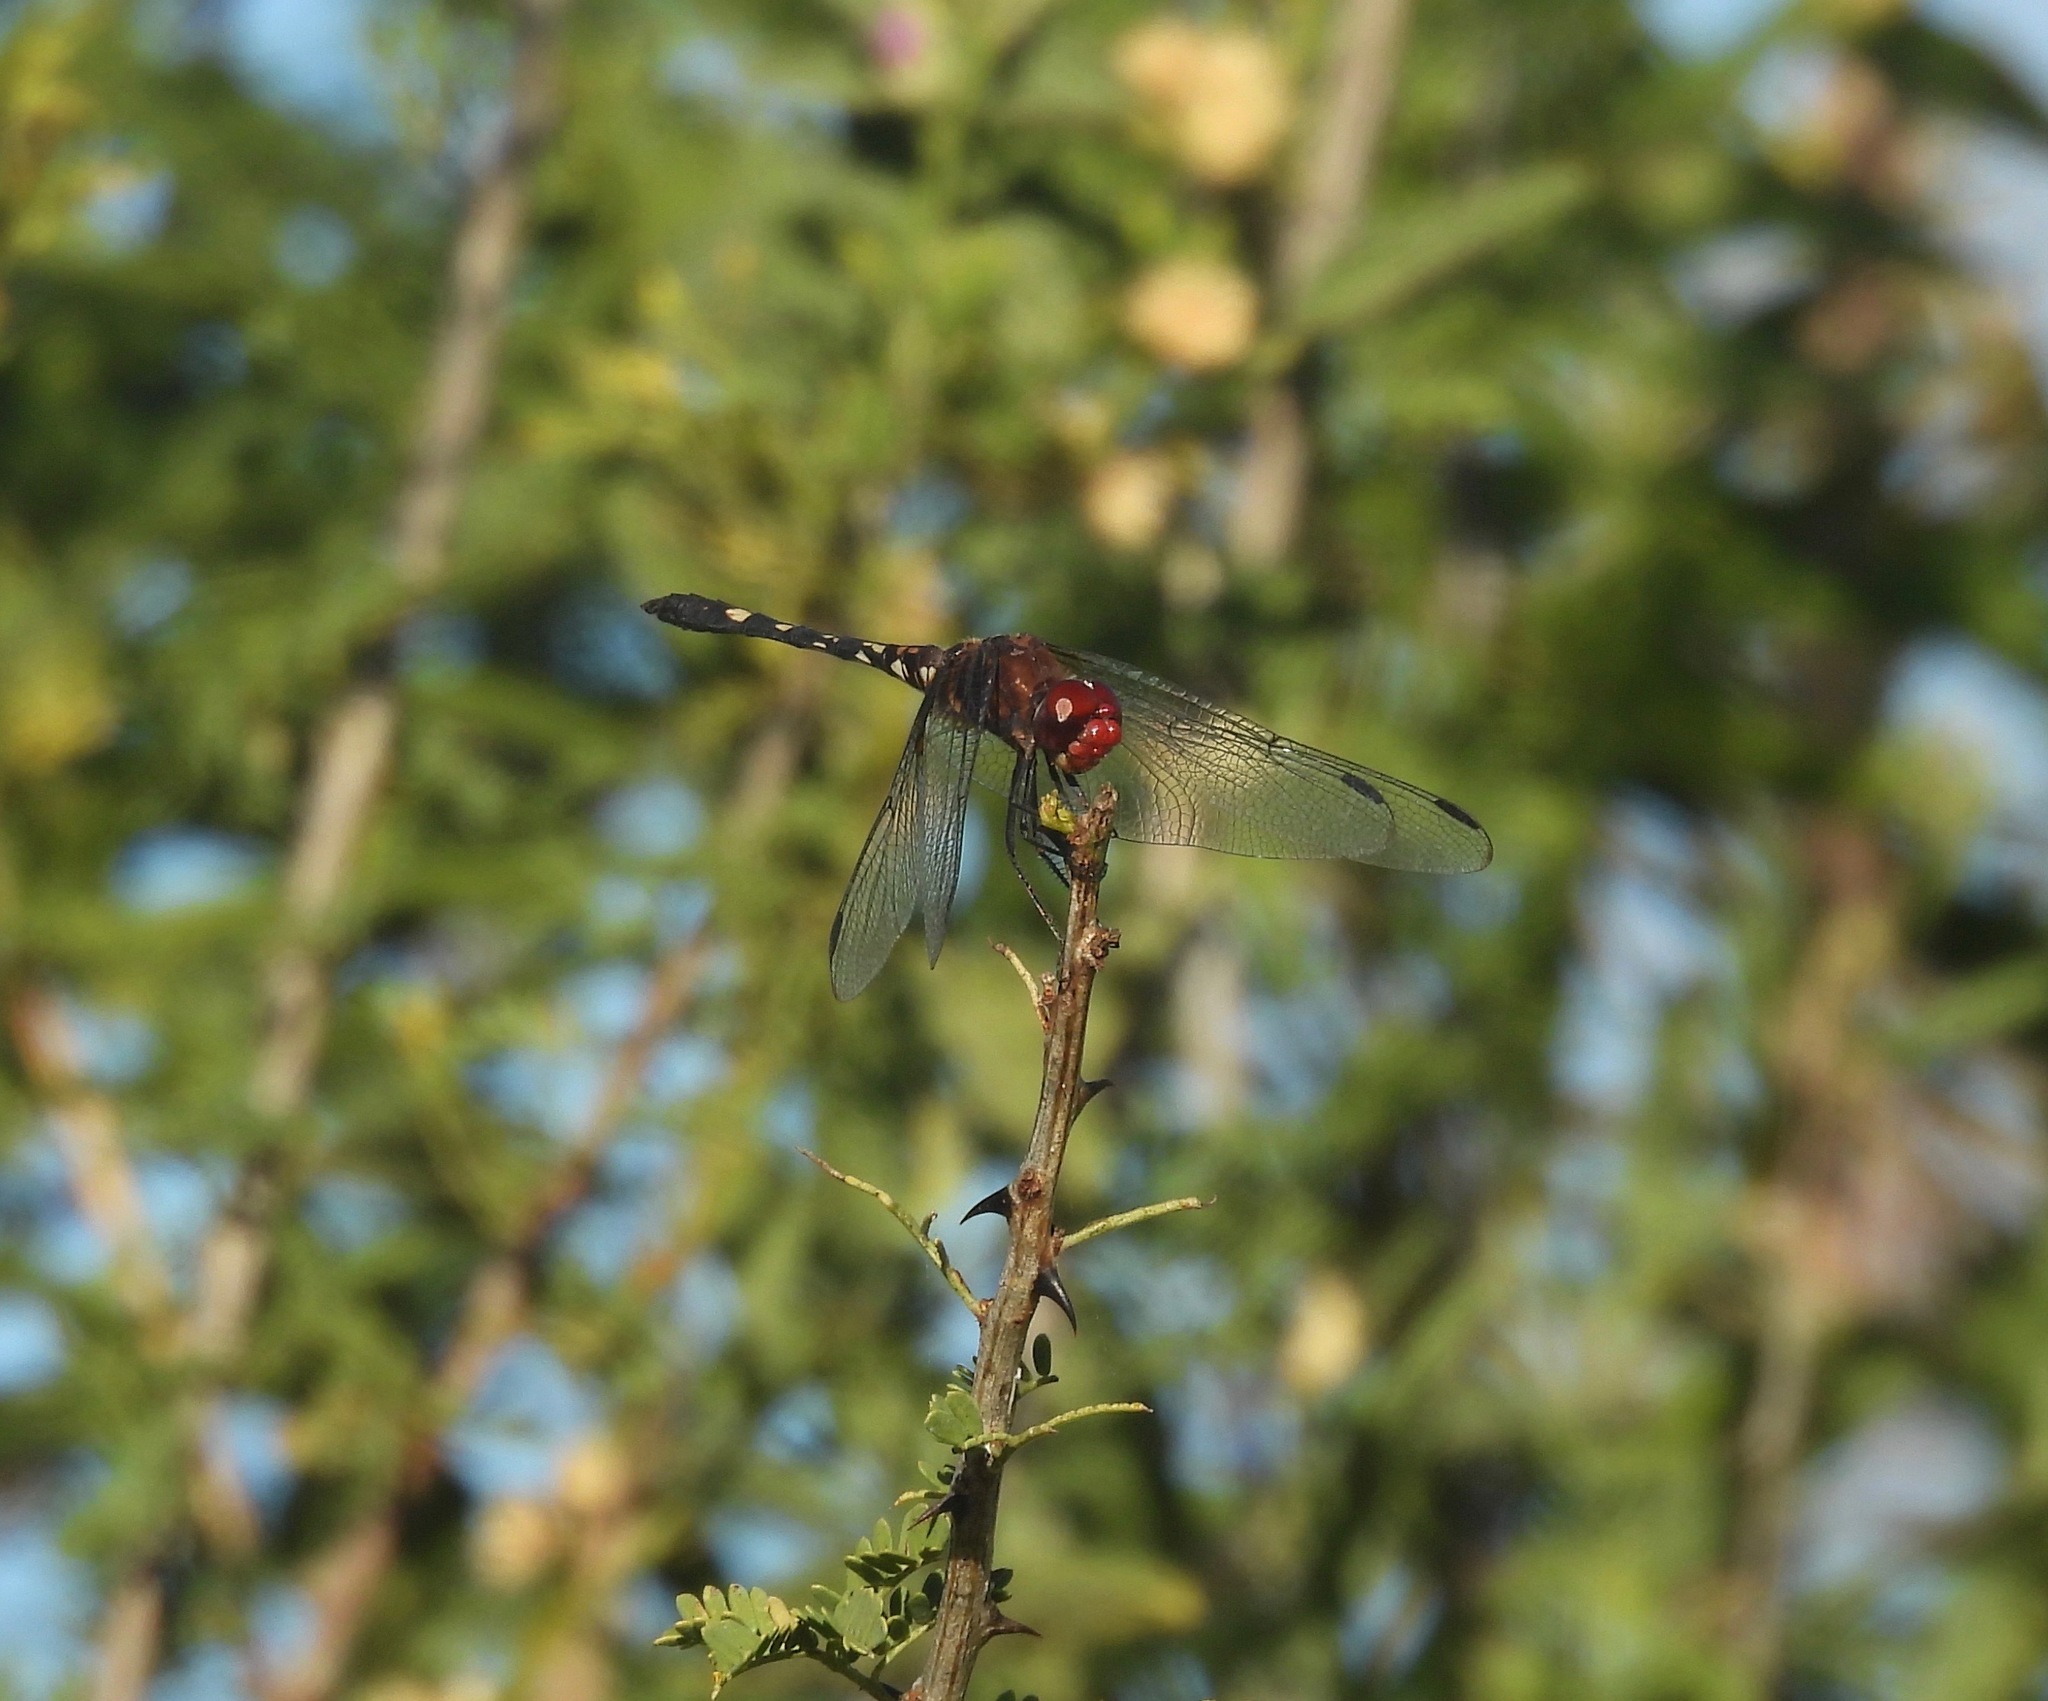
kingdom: Animalia
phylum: Arthropoda
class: Insecta
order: Odonata
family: Libellulidae
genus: Dythemis
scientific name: Dythemis fugax
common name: Checkered setwing
